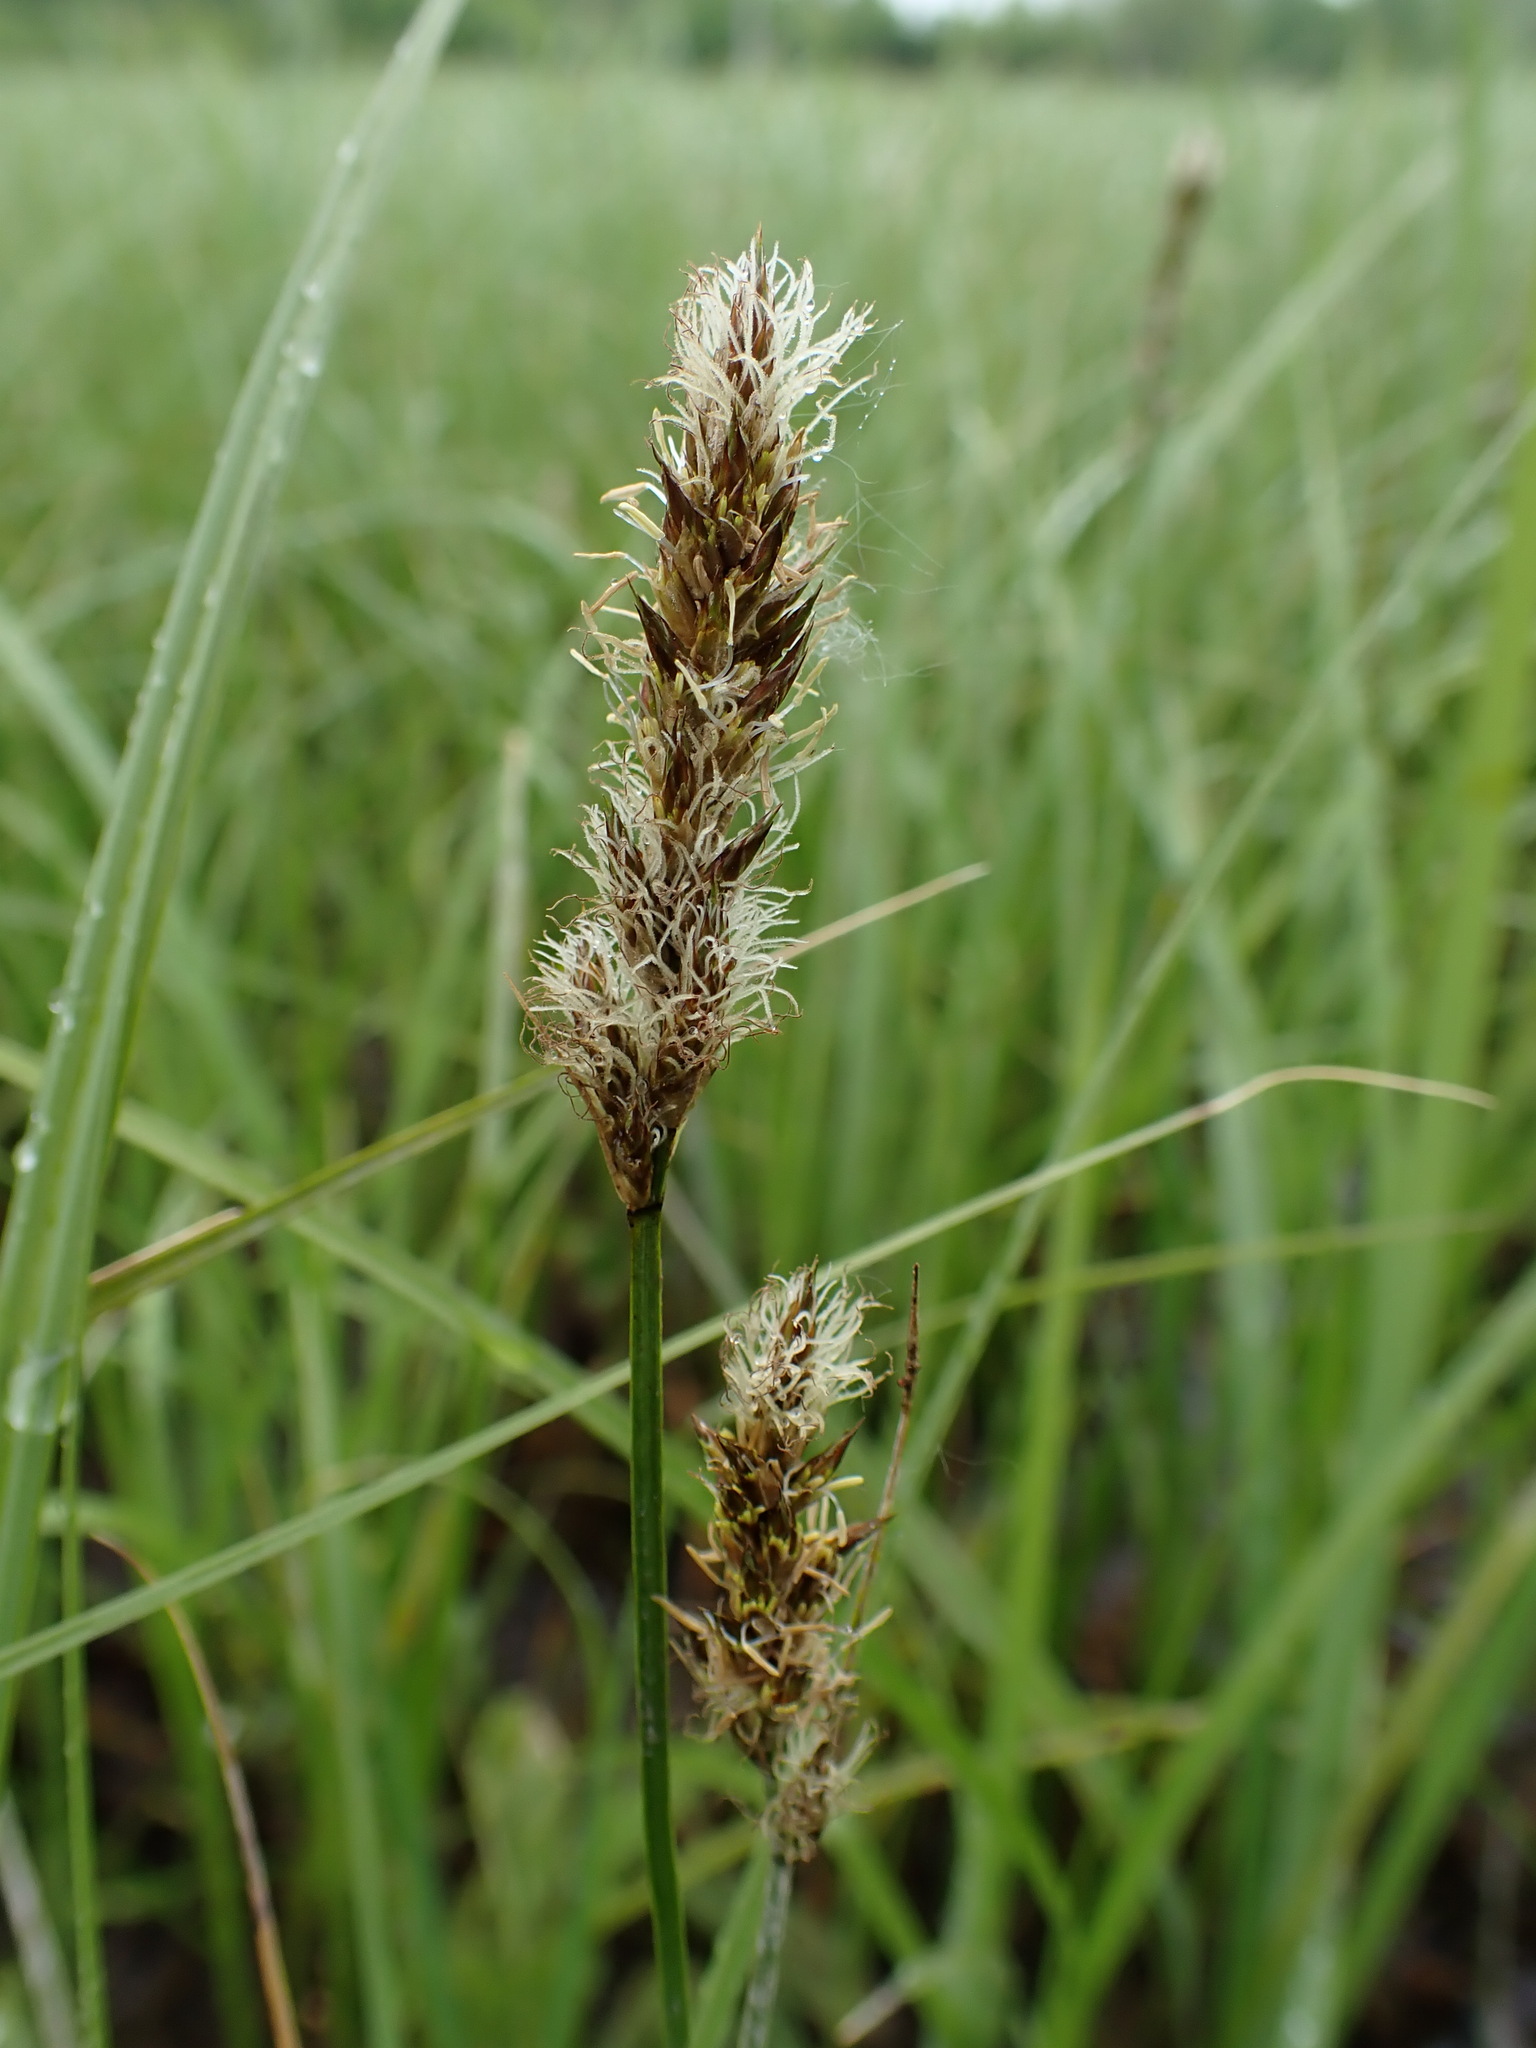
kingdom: Plantae
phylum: Tracheophyta
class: Liliopsida
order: Poales
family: Cyperaceae
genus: Carex
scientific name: Carex disticha
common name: Brown sedge
